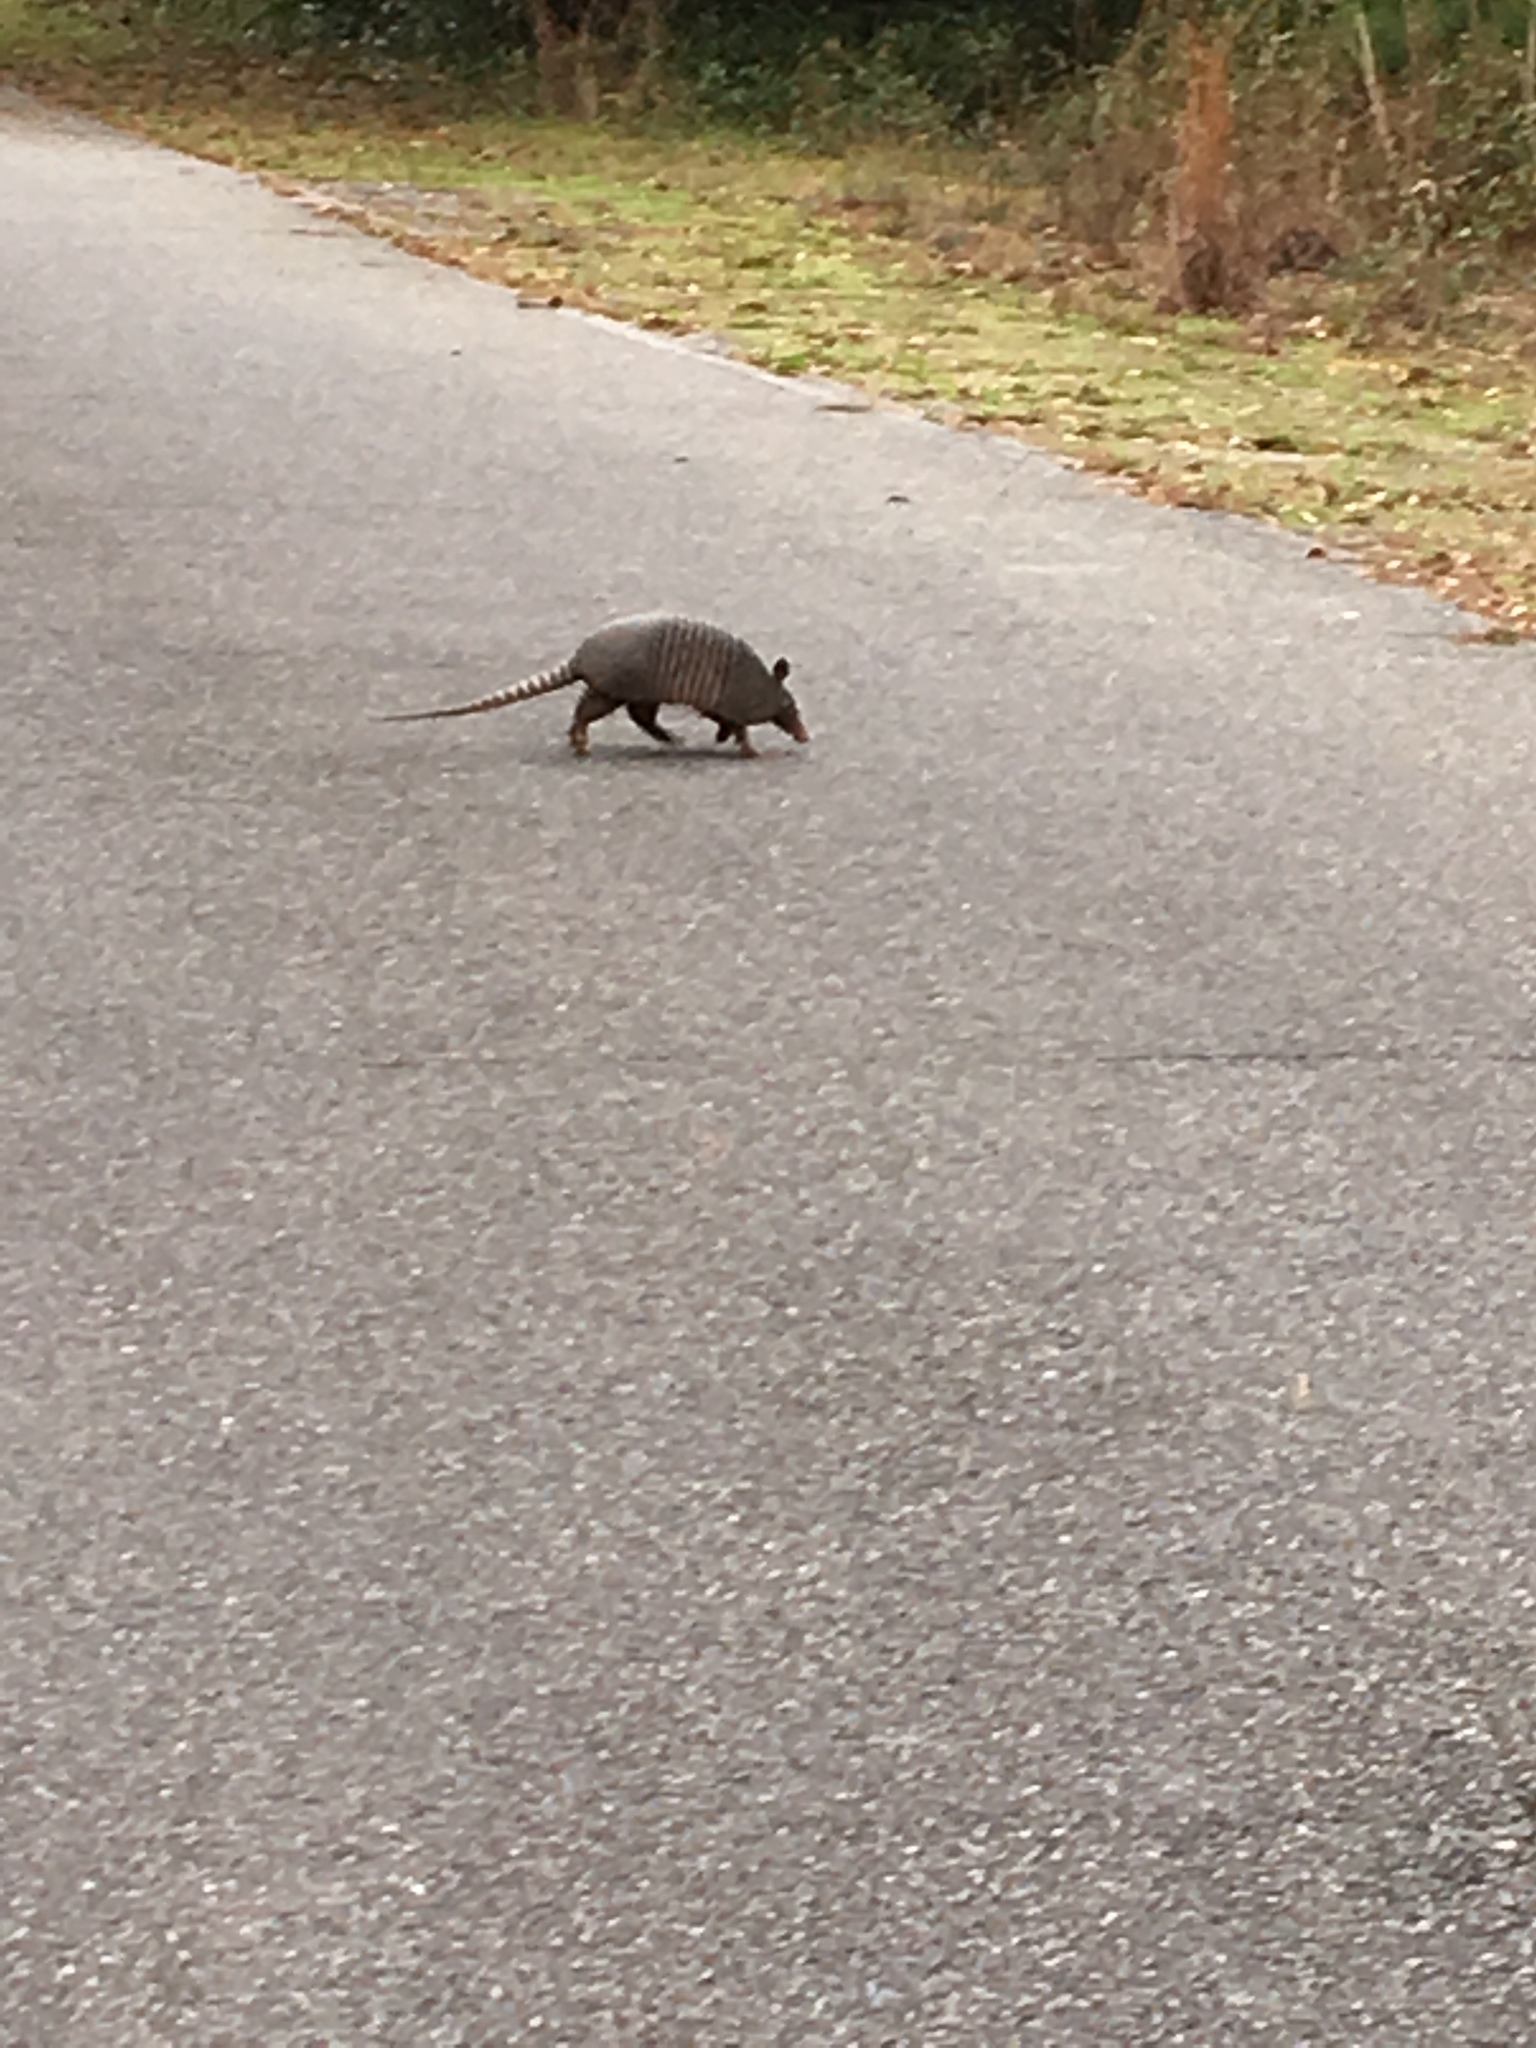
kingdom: Animalia
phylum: Chordata
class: Mammalia
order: Cingulata
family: Dasypodidae
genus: Dasypus
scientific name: Dasypus novemcinctus
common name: Nine-banded armadillo
